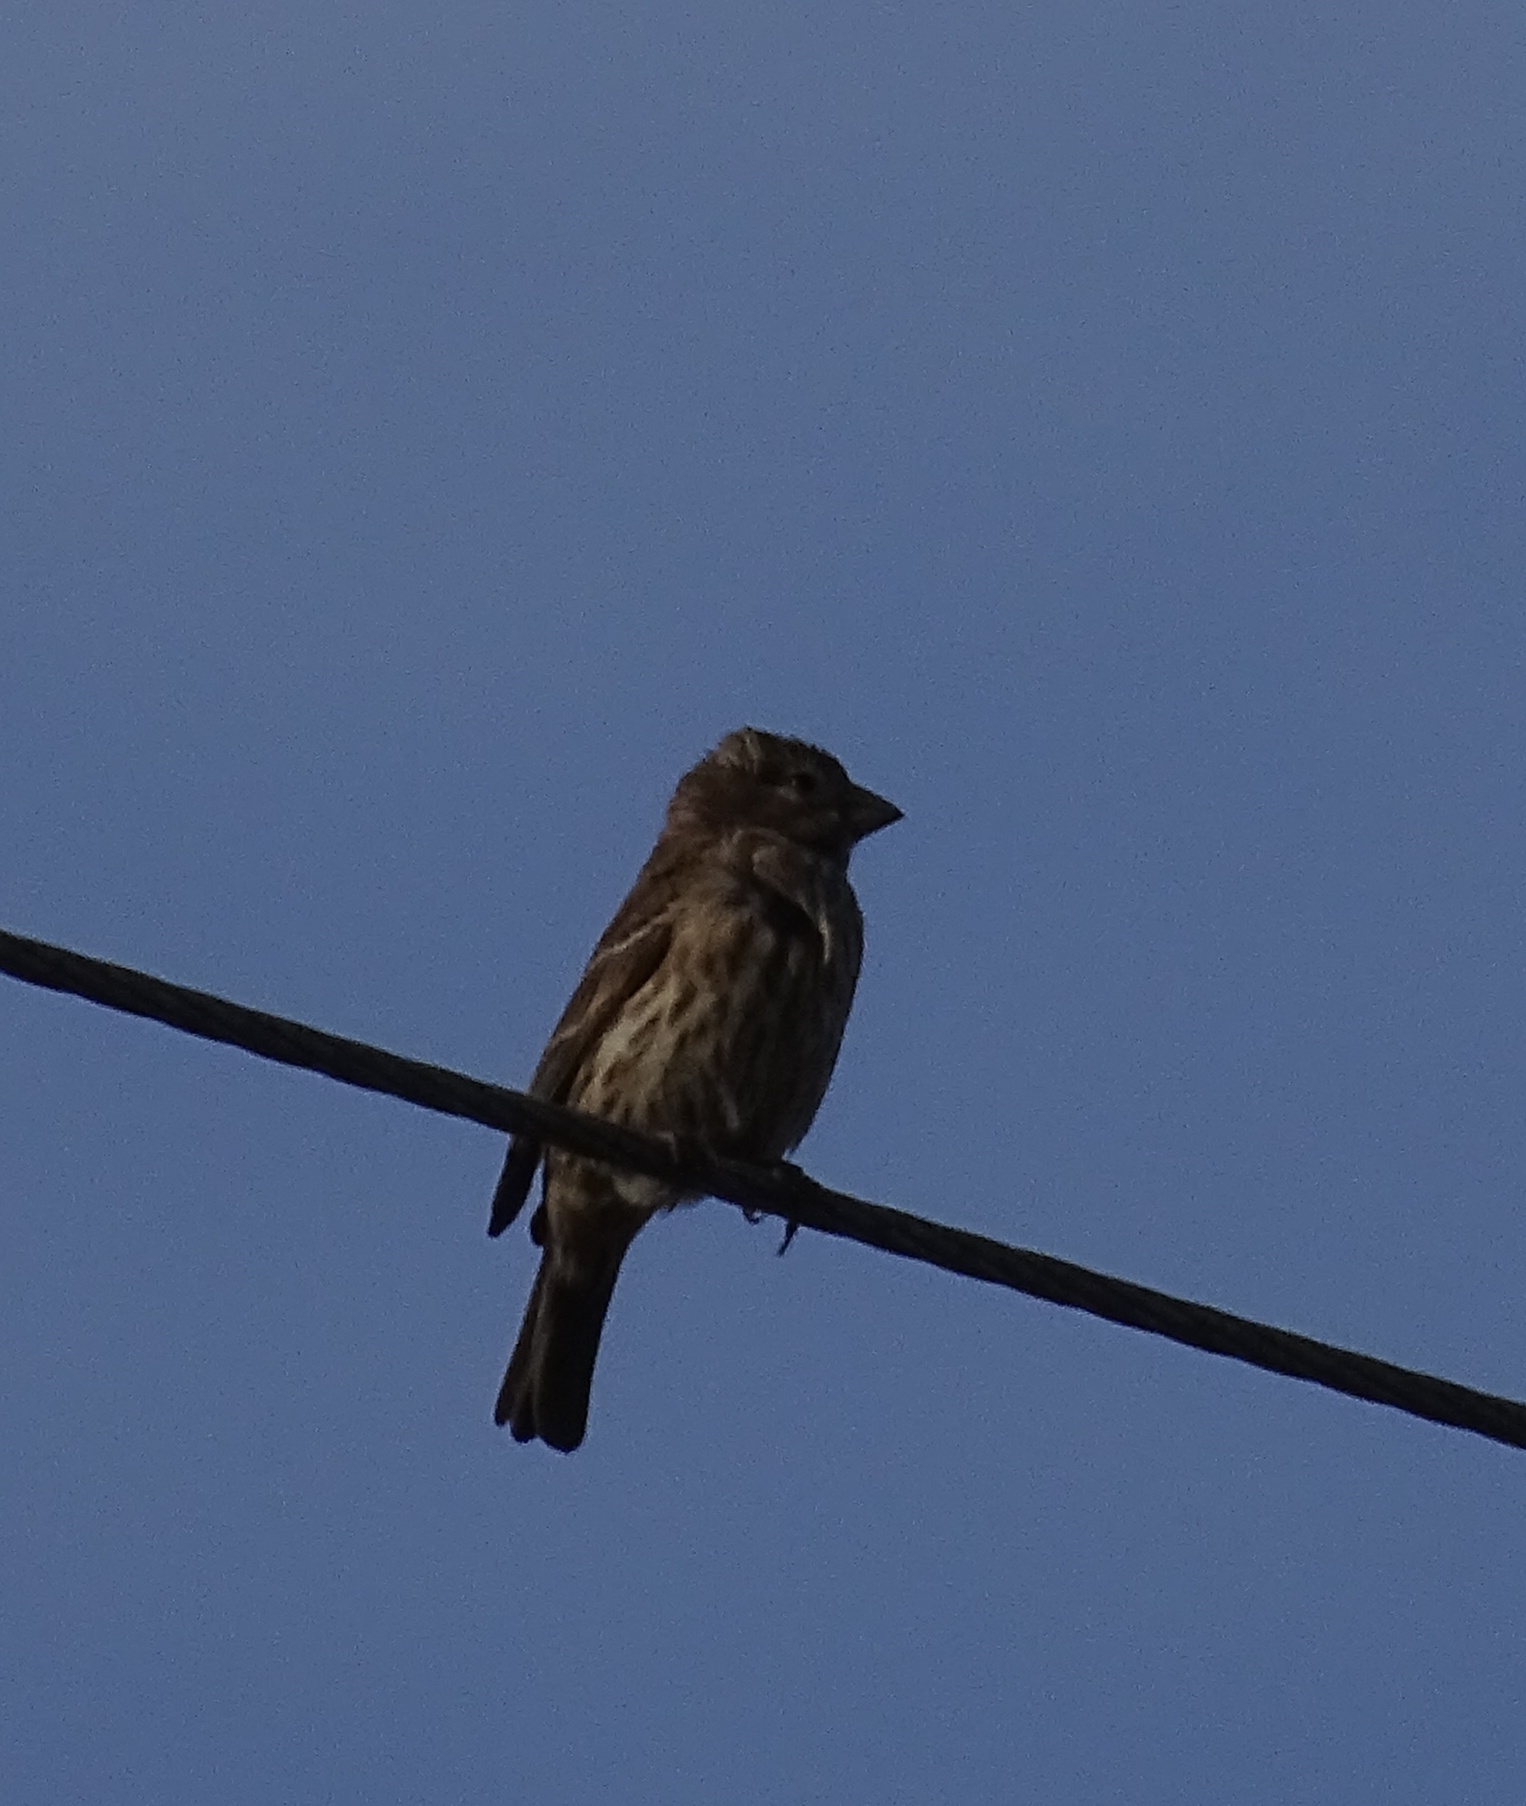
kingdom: Animalia
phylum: Chordata
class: Aves
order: Passeriformes
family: Fringillidae
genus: Haemorhous
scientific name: Haemorhous mexicanus
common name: House finch
